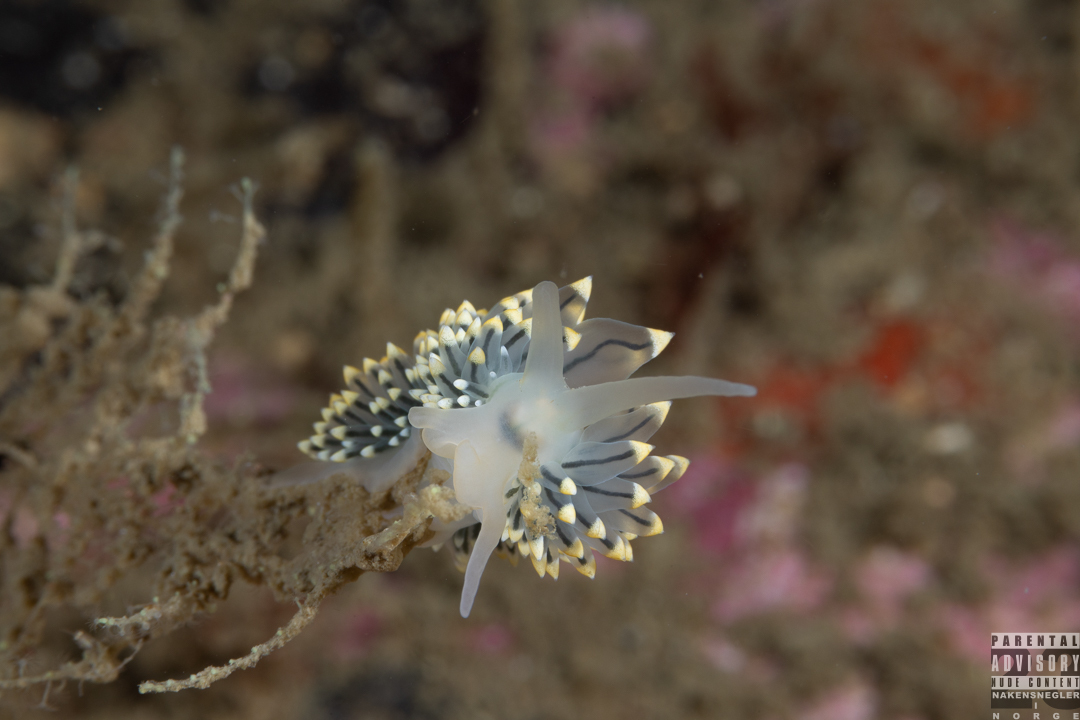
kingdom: Animalia
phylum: Mollusca
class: Gastropoda
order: Nudibranchia
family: Eubranchidae
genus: Eubranchus
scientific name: Eubranchus tricolor
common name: Painted balloon aeolis
